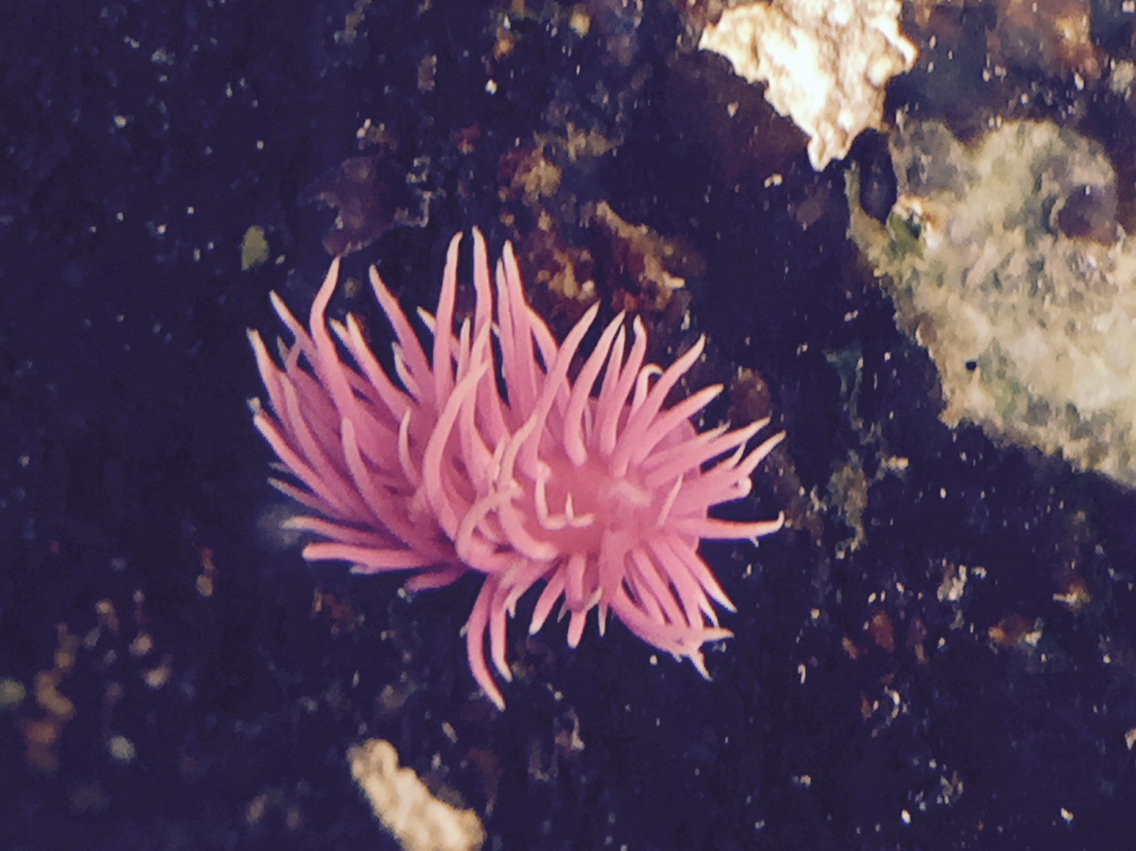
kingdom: Animalia
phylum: Mollusca
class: Gastropoda
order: Nudibranchia
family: Goniodorididae
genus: Okenia
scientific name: Okenia
